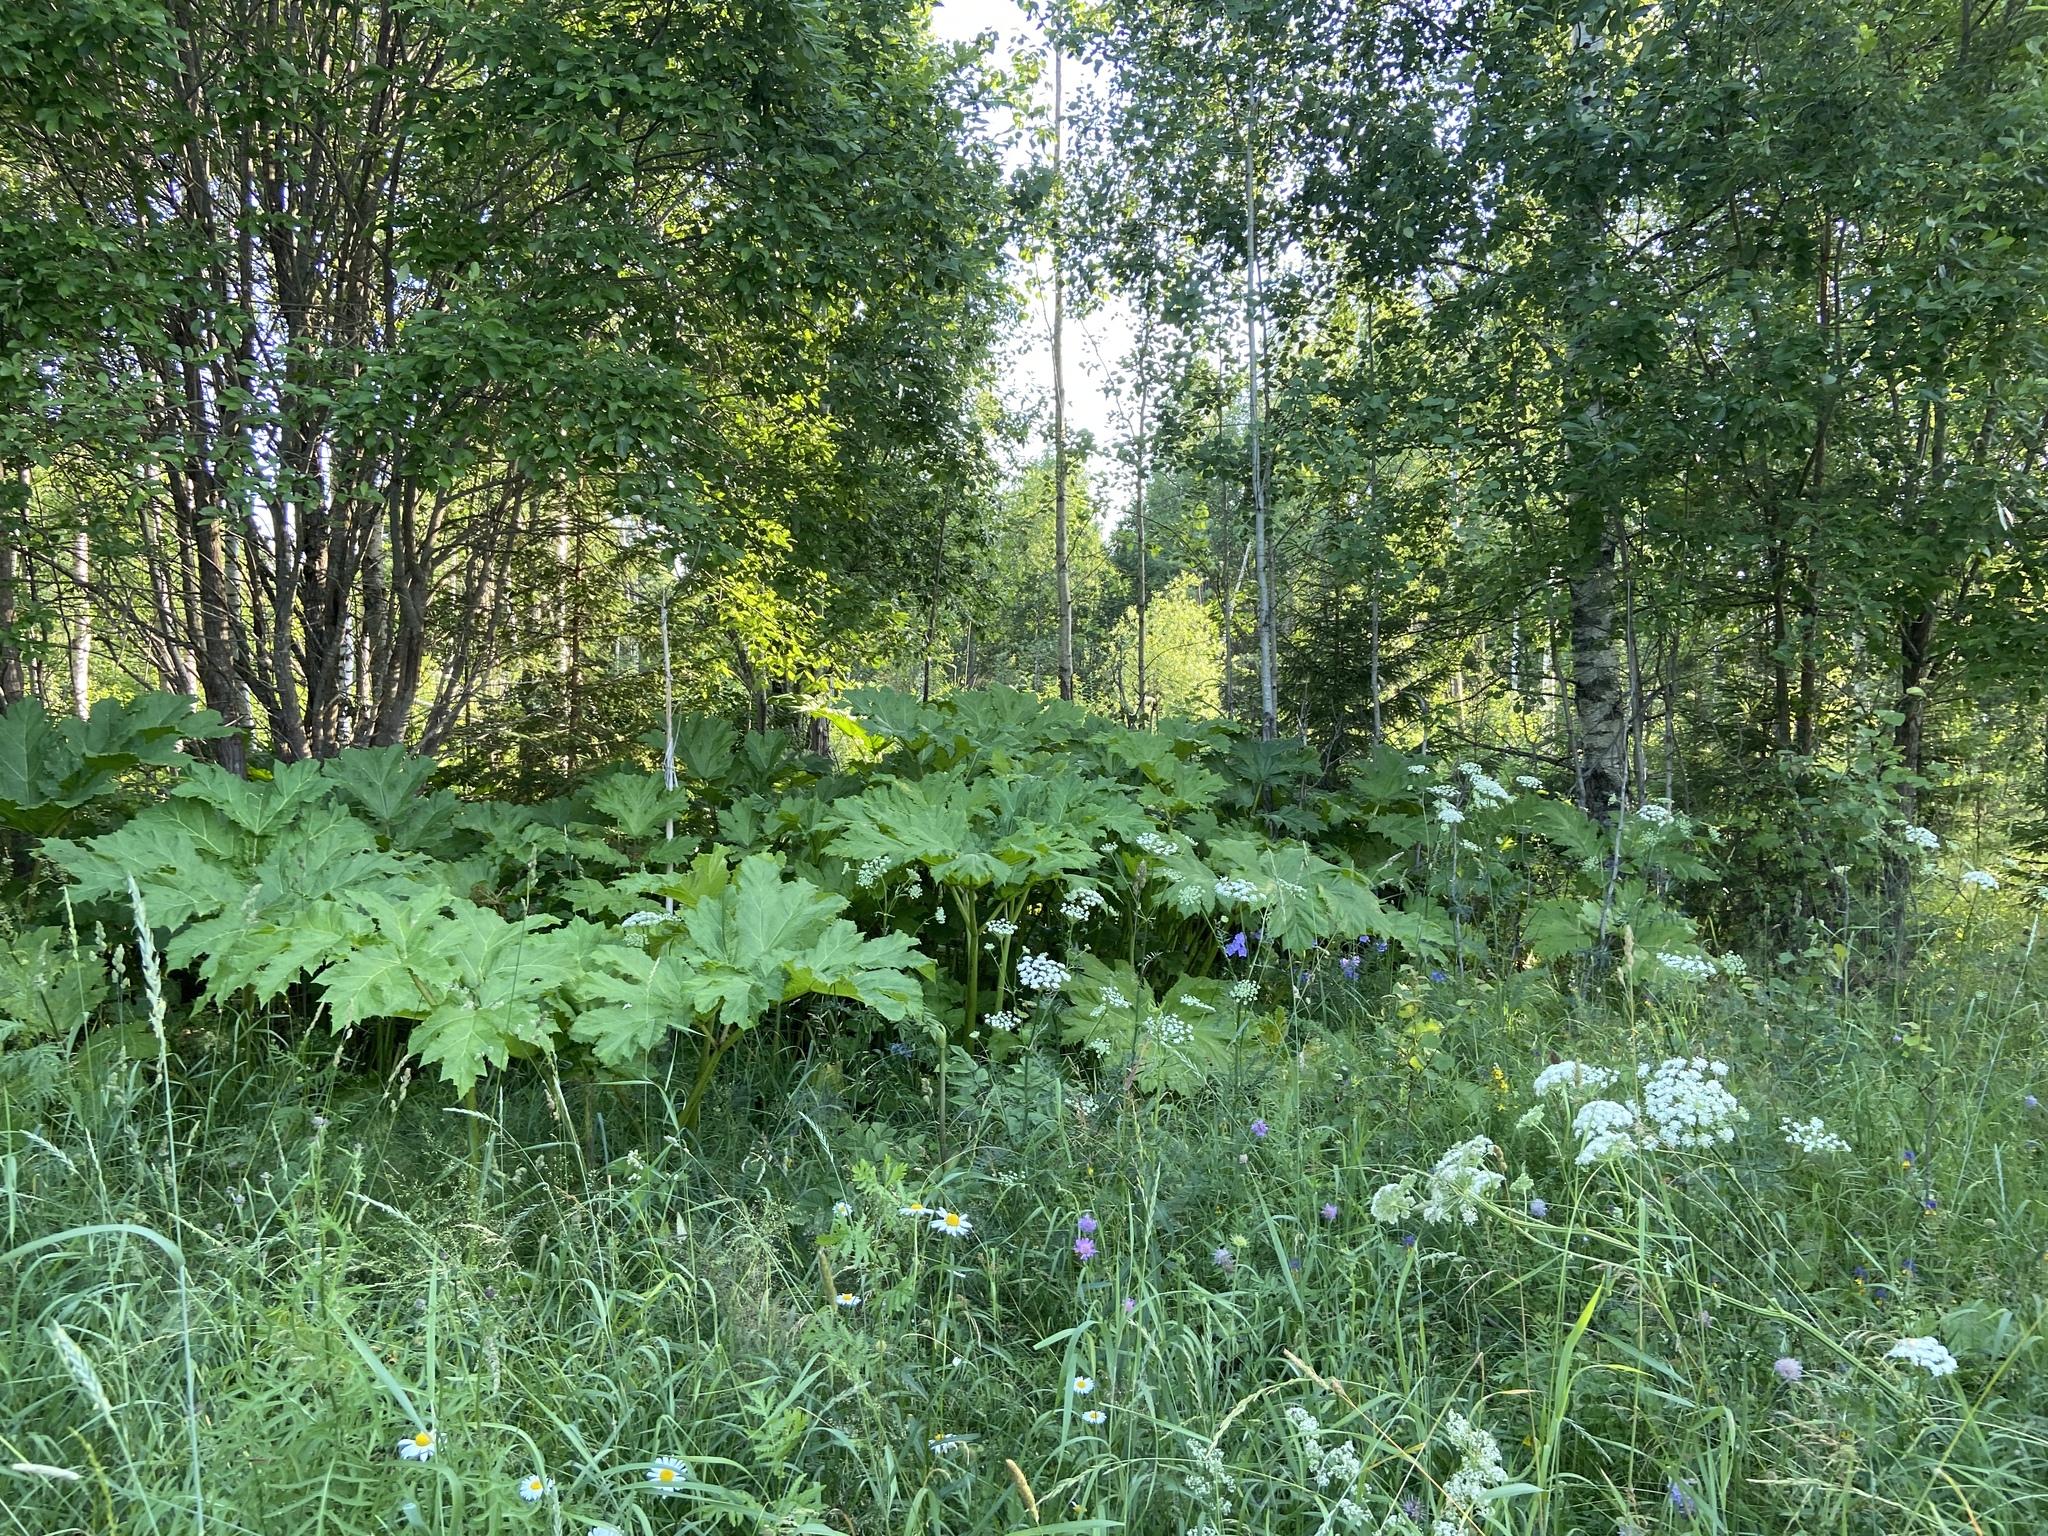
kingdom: Plantae
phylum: Tracheophyta
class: Magnoliopsida
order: Apiales
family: Apiaceae
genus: Heracleum
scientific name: Heracleum sosnowskyi
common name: Sosnowsky's hogweed
